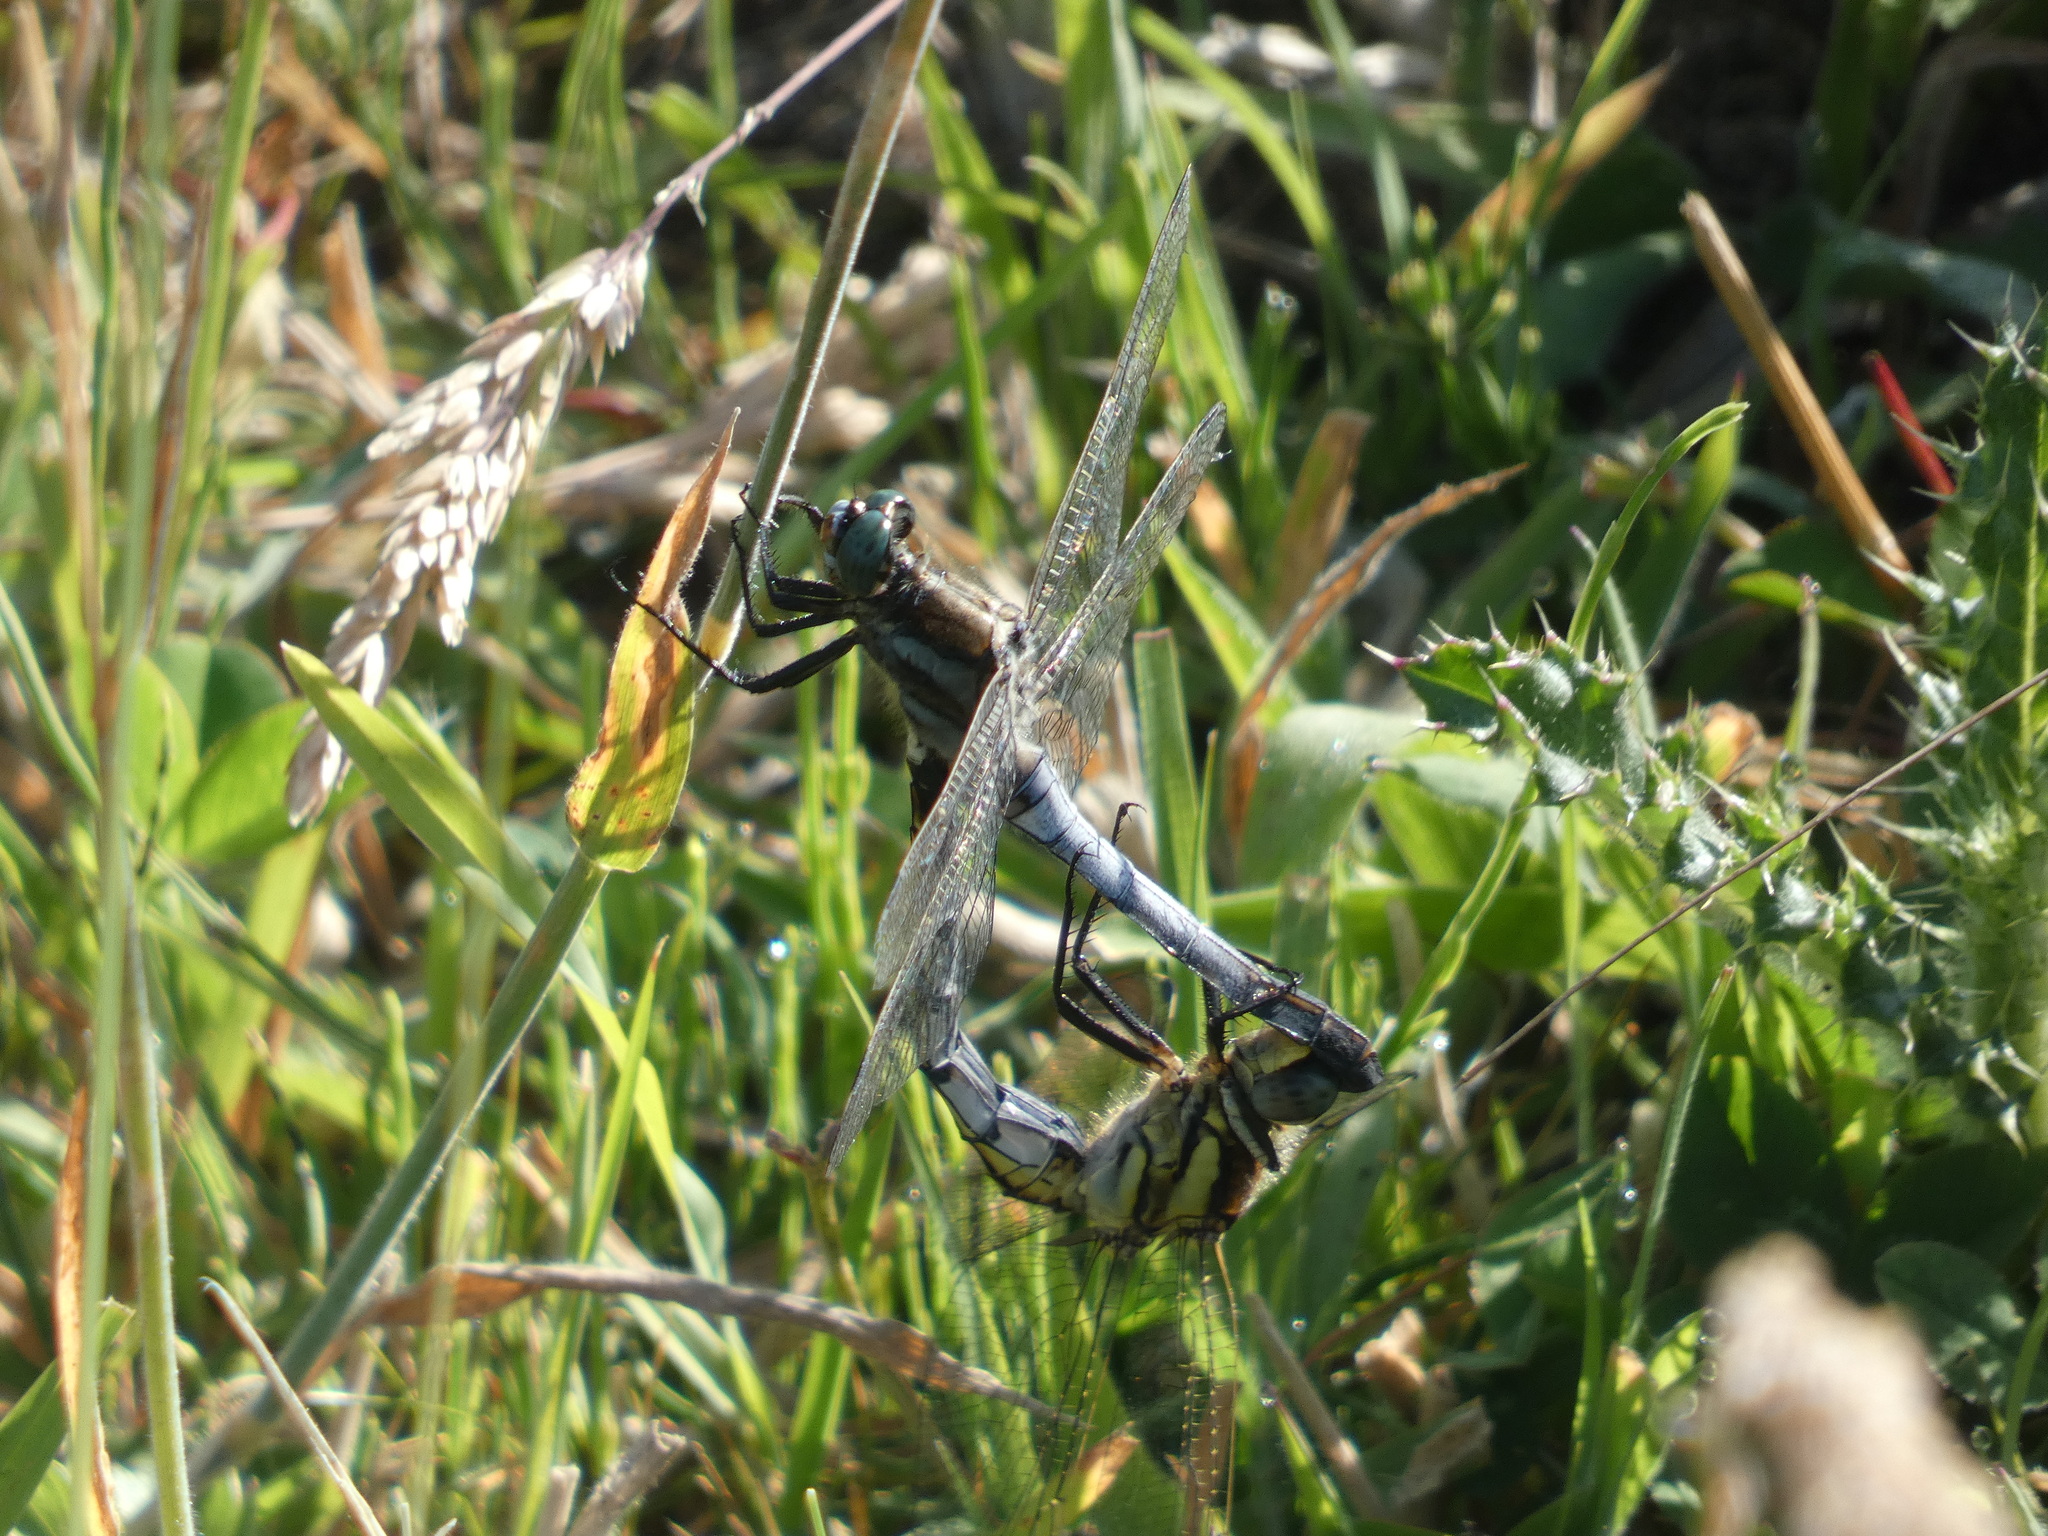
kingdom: Animalia
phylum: Arthropoda
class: Insecta
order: Odonata
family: Libellulidae
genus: Orthetrum
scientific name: Orthetrum albistylum
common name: White-tailed skimmer
